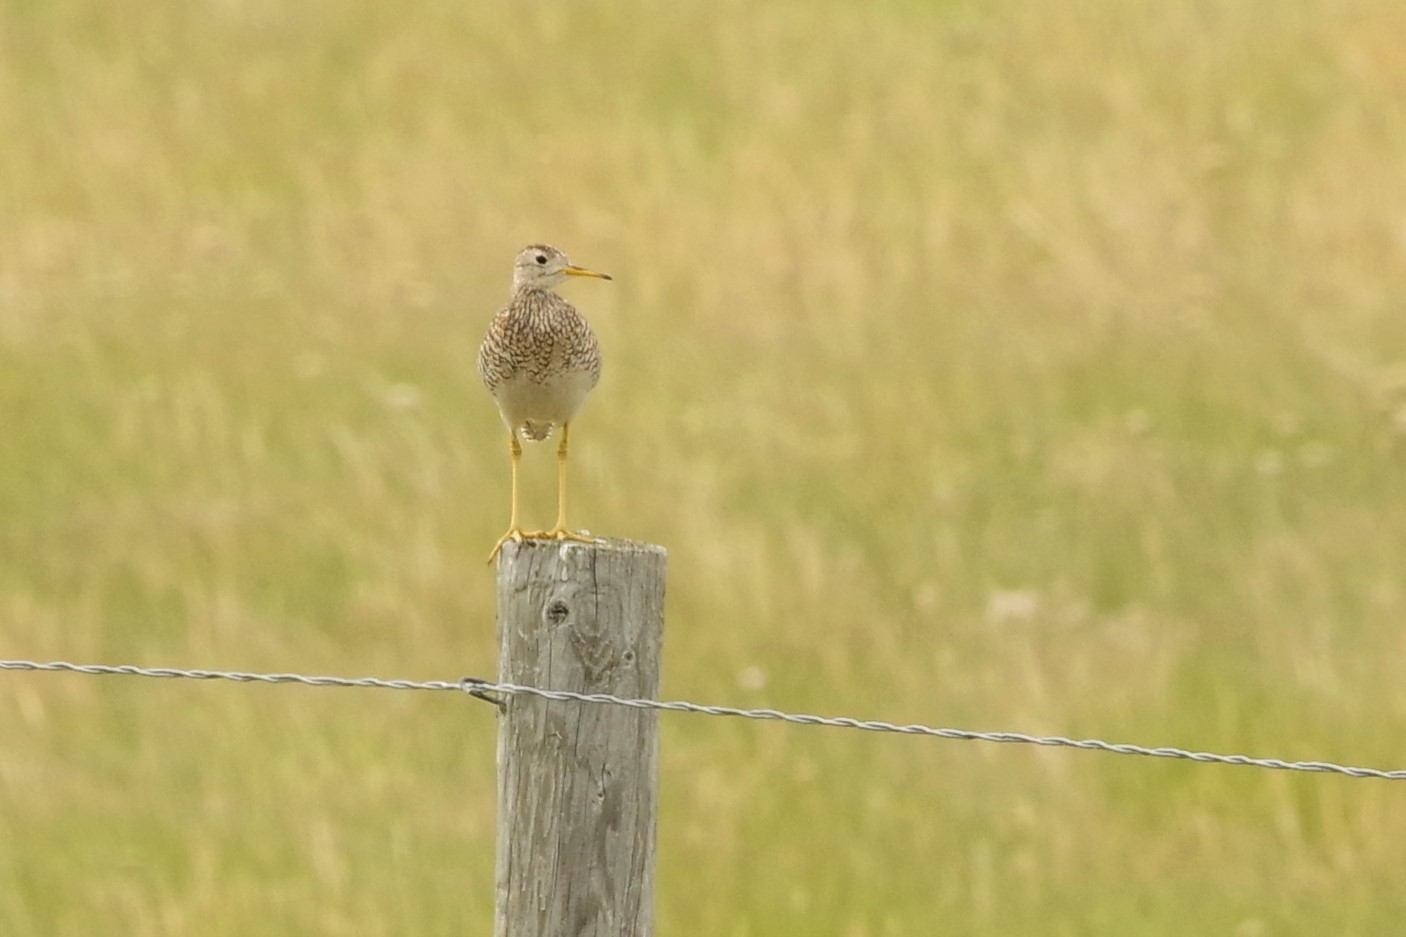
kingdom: Animalia
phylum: Chordata
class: Aves
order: Charadriiformes
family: Scolopacidae
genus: Bartramia
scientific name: Bartramia longicauda
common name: Upland sandpiper
